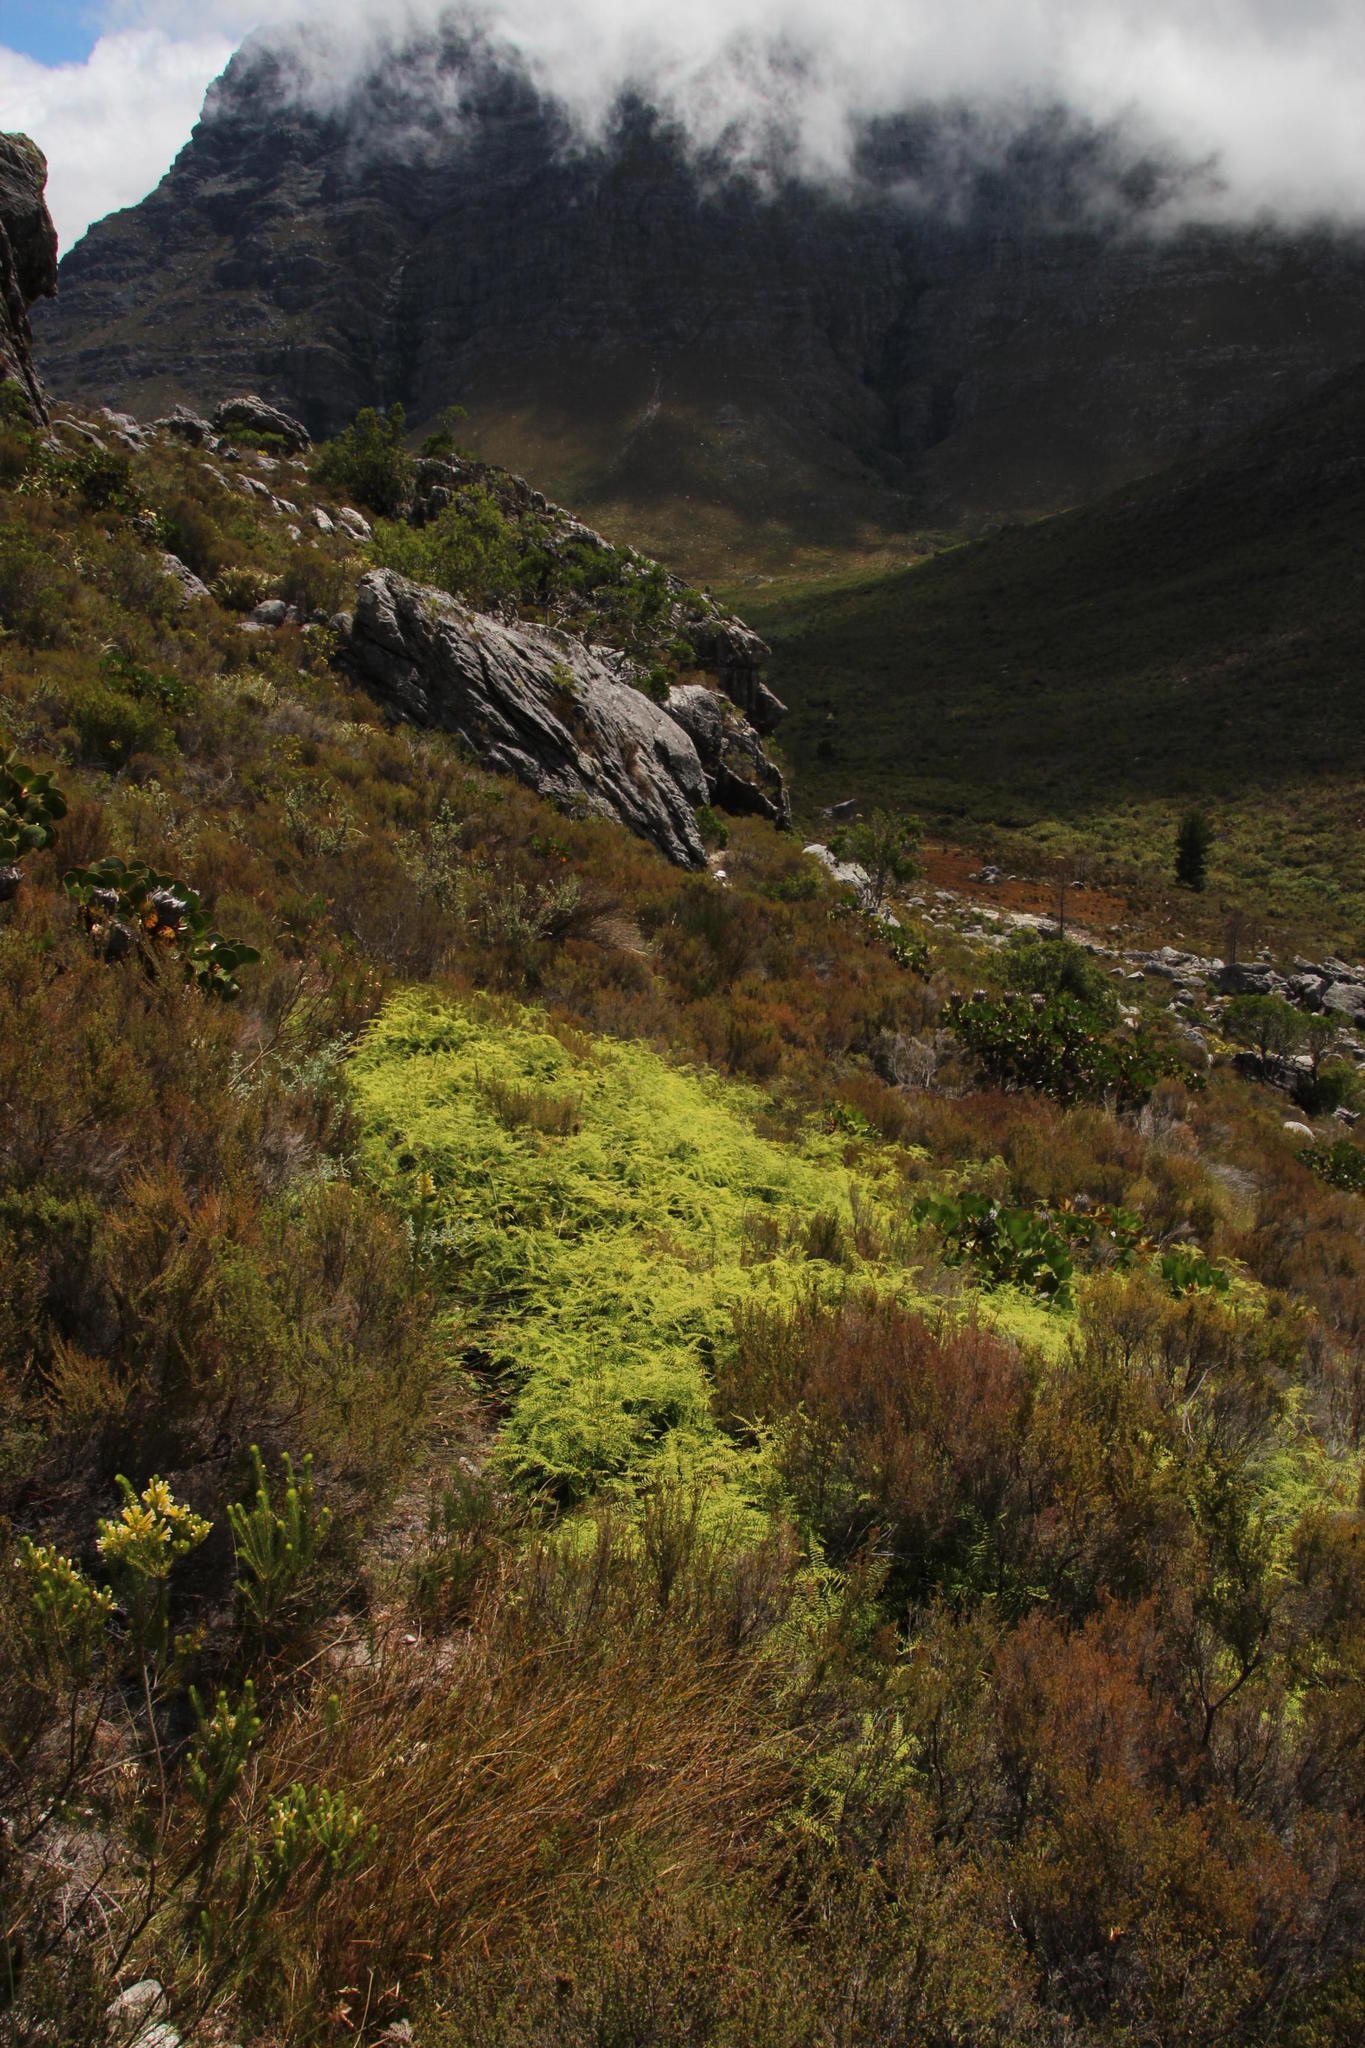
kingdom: Plantae
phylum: Tracheophyta
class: Polypodiopsida
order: Gleicheniales
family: Gleicheniaceae
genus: Gleichenia
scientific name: Gleichenia polypodioides
